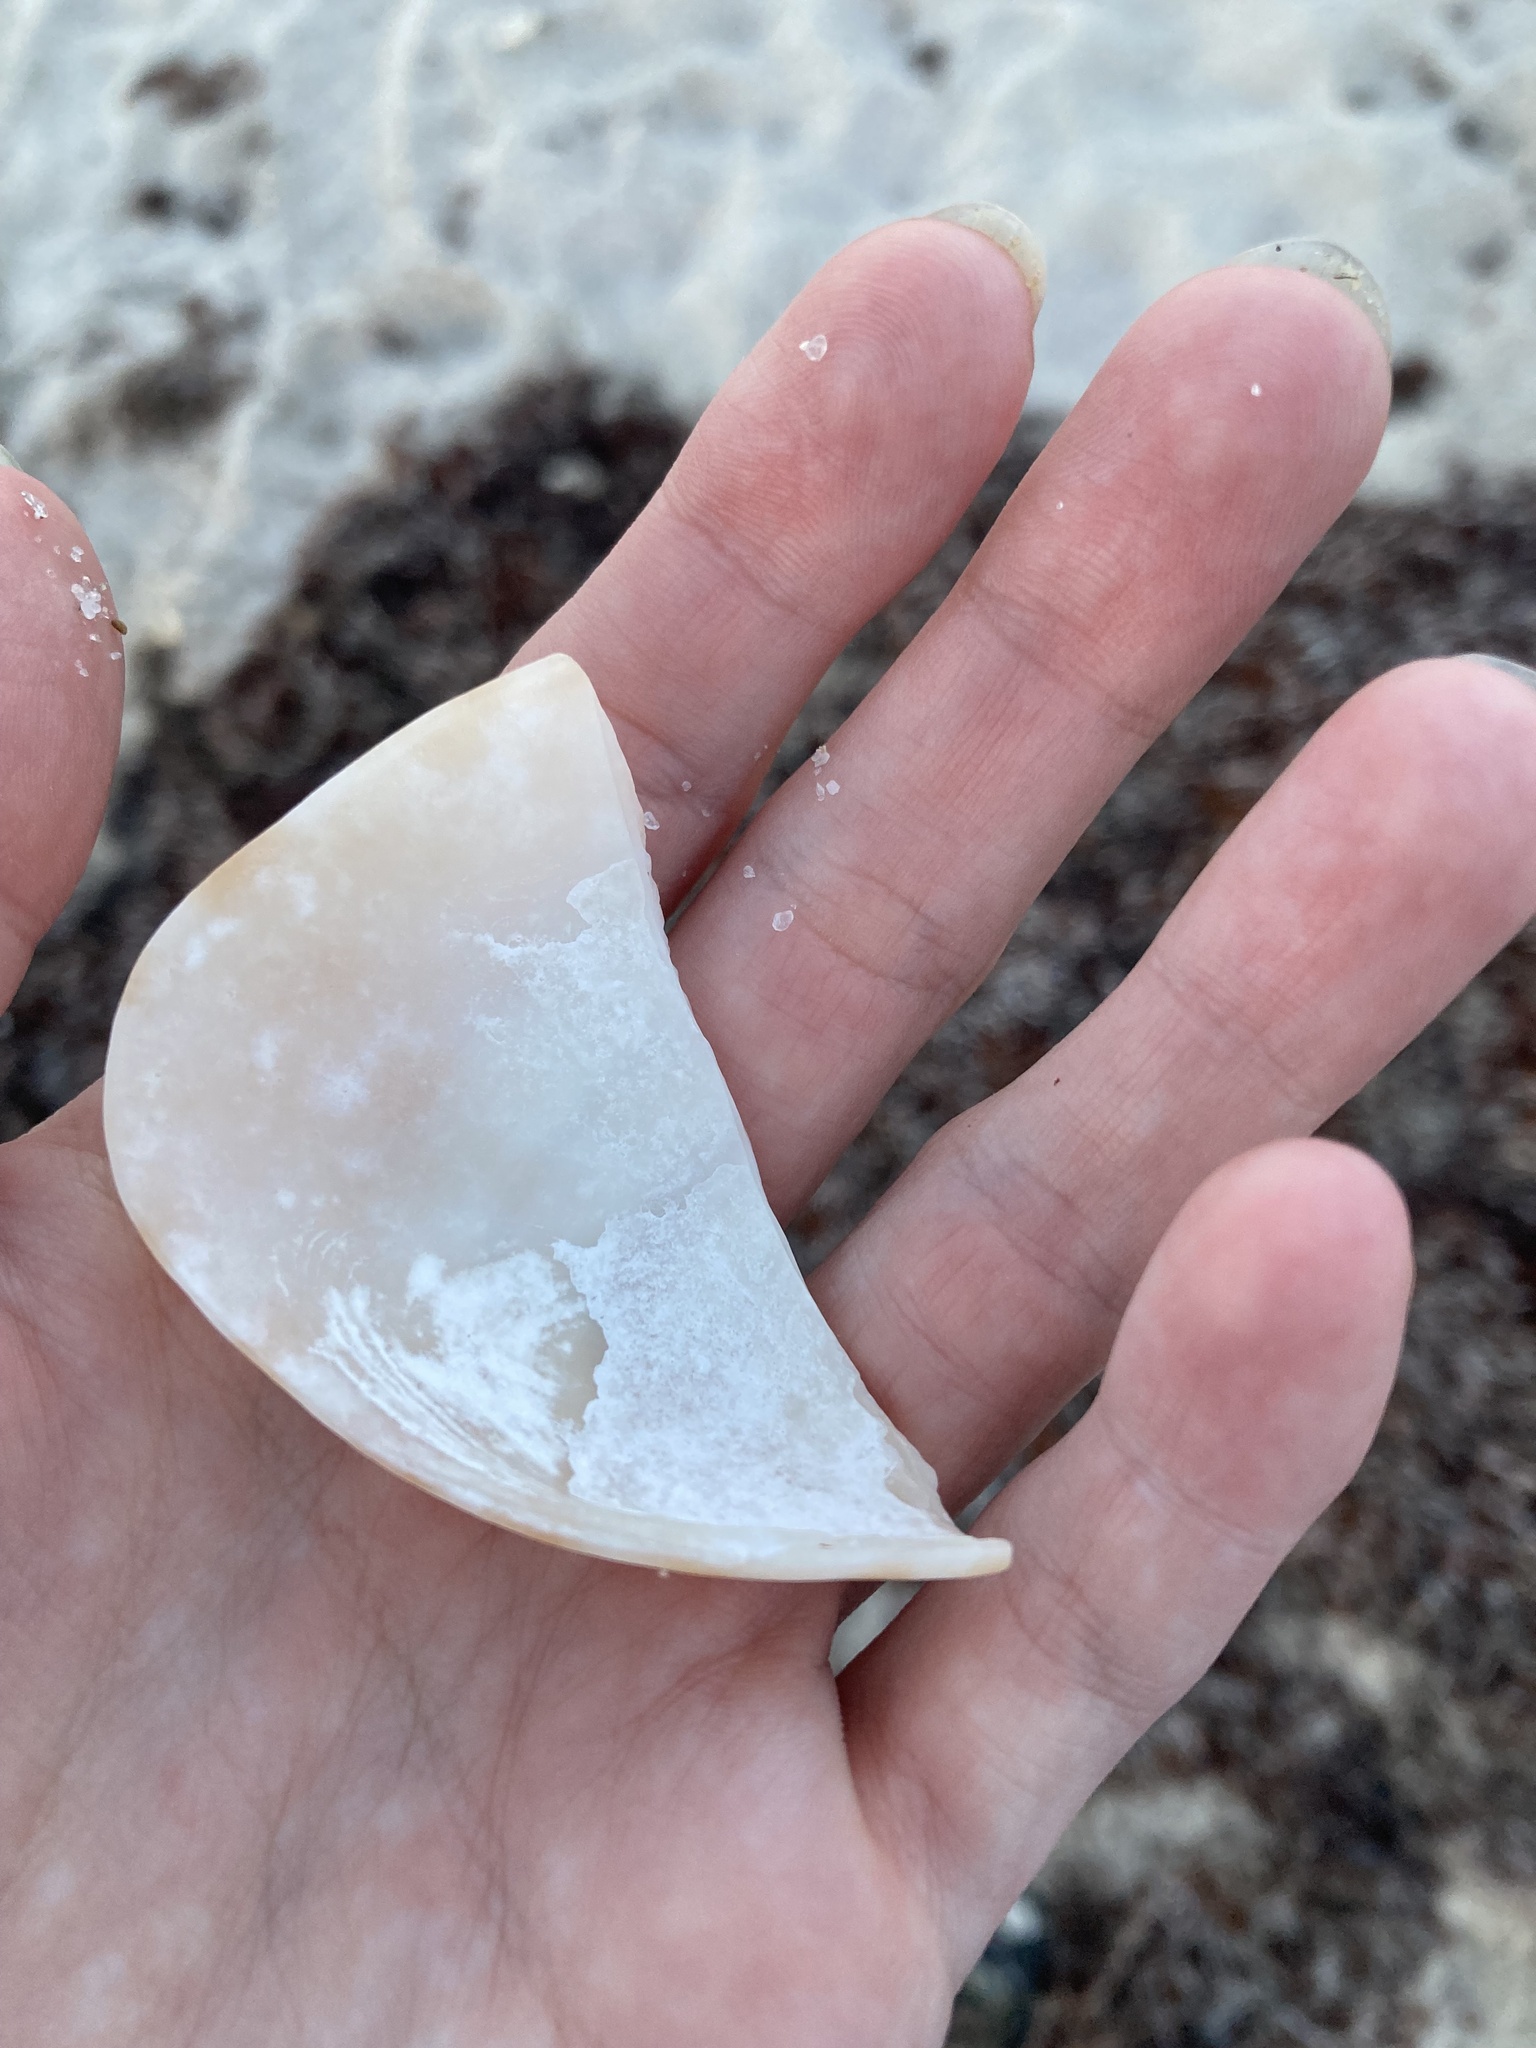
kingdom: Animalia
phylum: Mollusca
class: Bivalvia
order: Venerida
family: Veneridae
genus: Megapitaria
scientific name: Megapitaria maculata
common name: Calico clam
